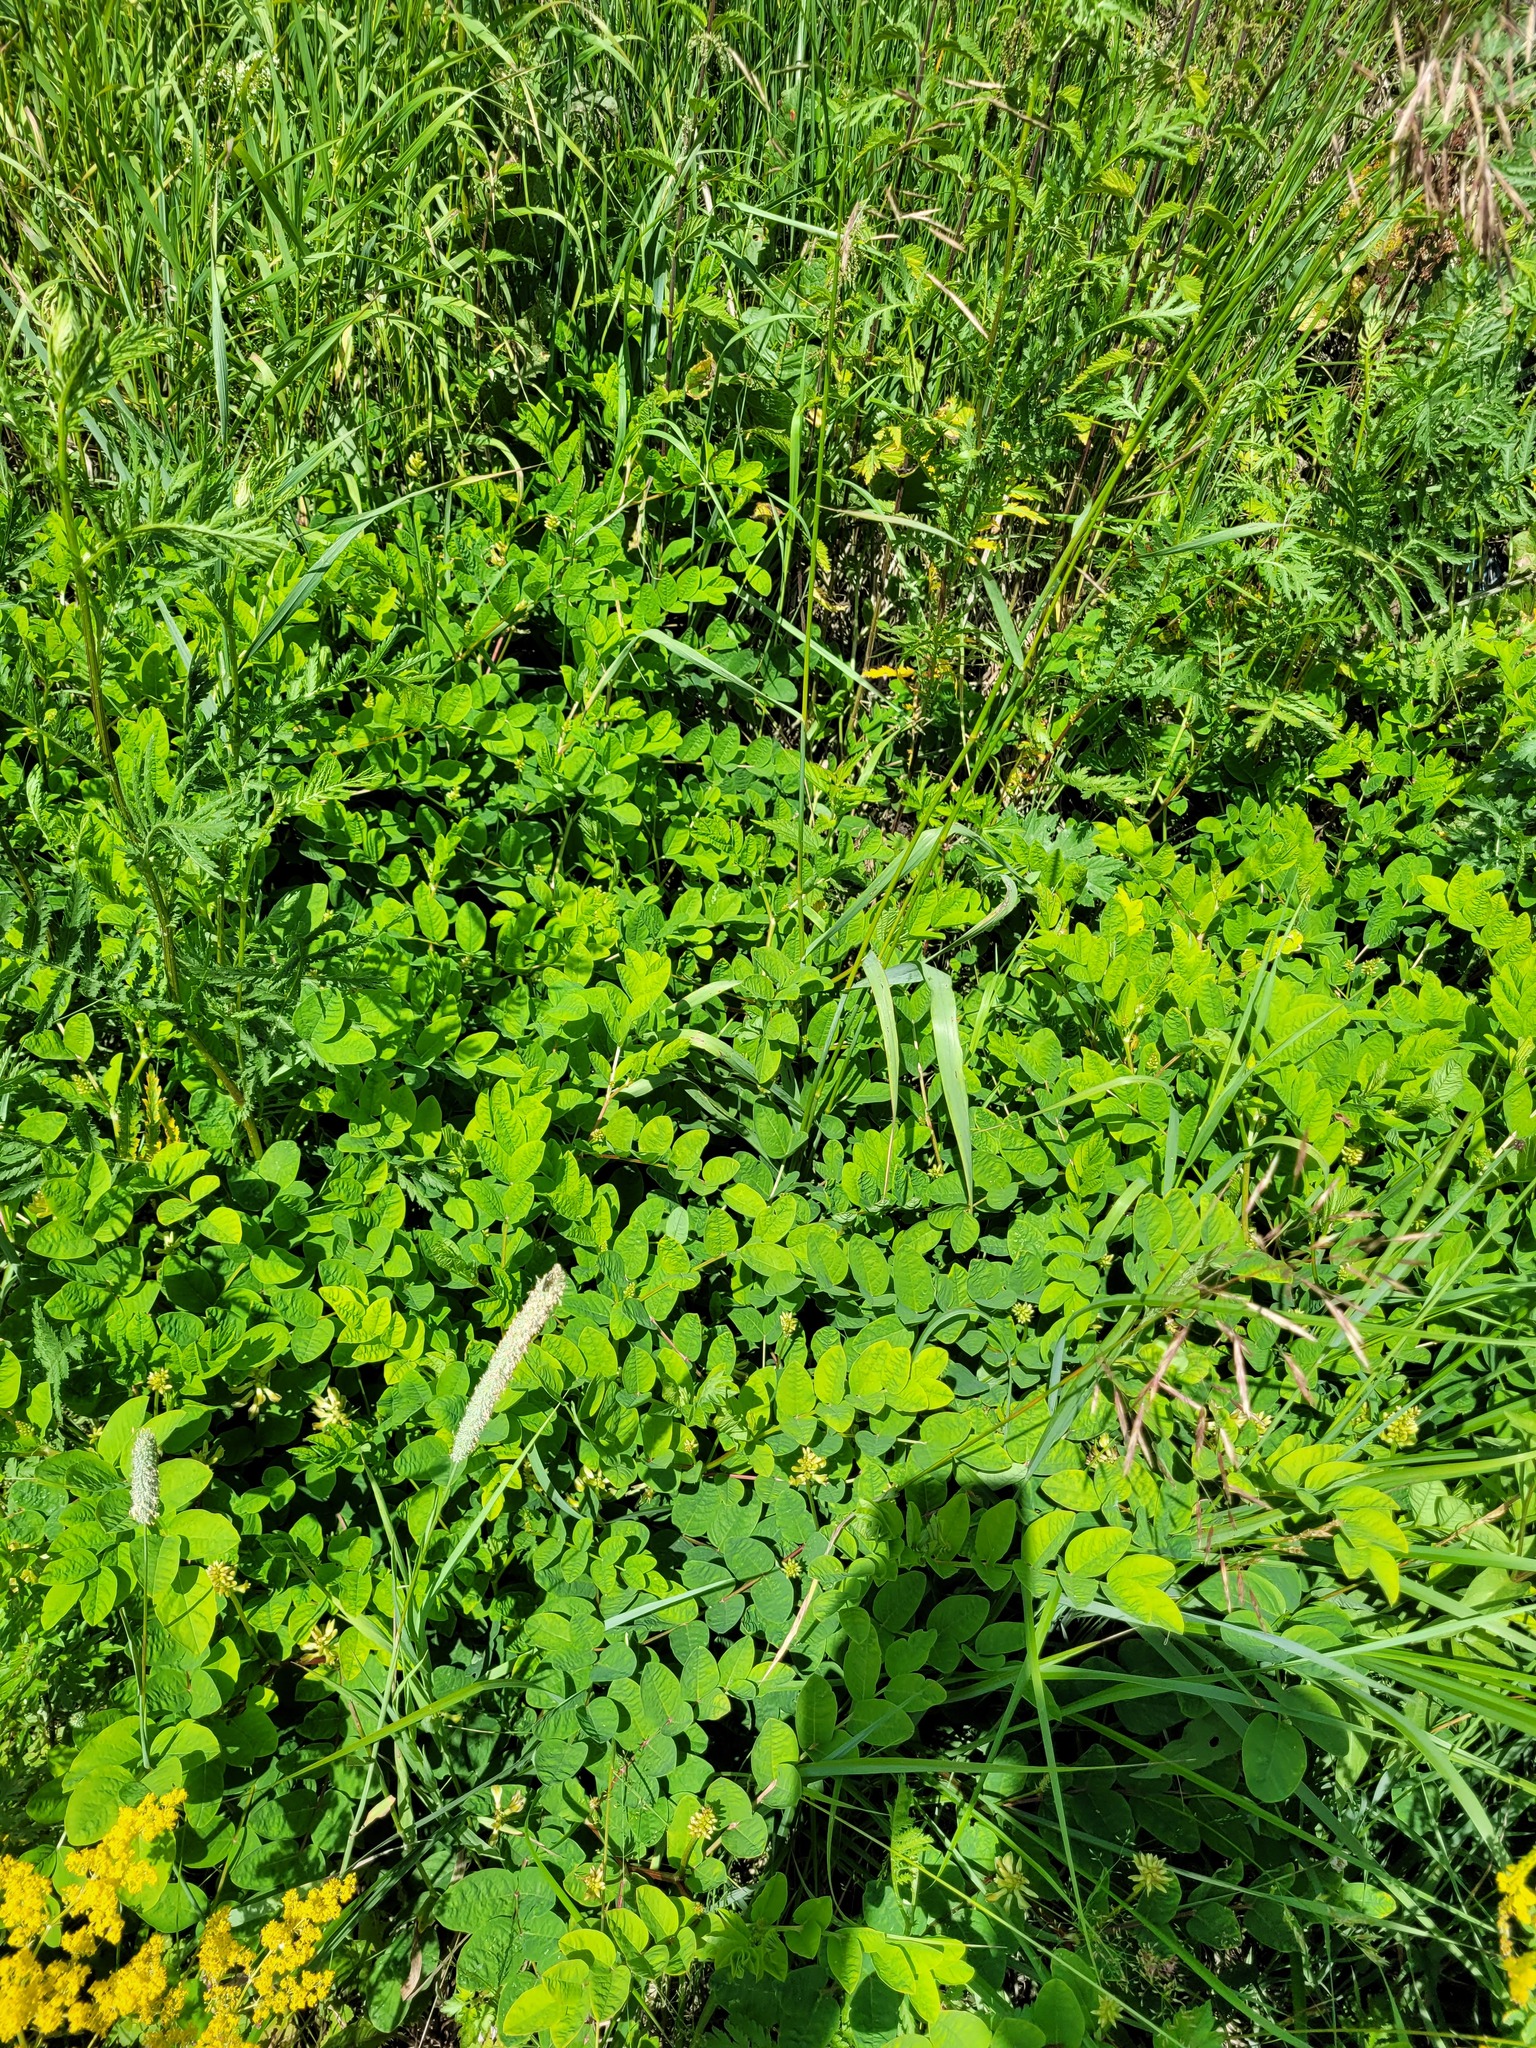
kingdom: Plantae
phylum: Tracheophyta
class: Magnoliopsida
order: Fabales
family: Fabaceae
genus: Astragalus
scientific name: Astragalus glycyphyllos
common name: Wild liquorice
